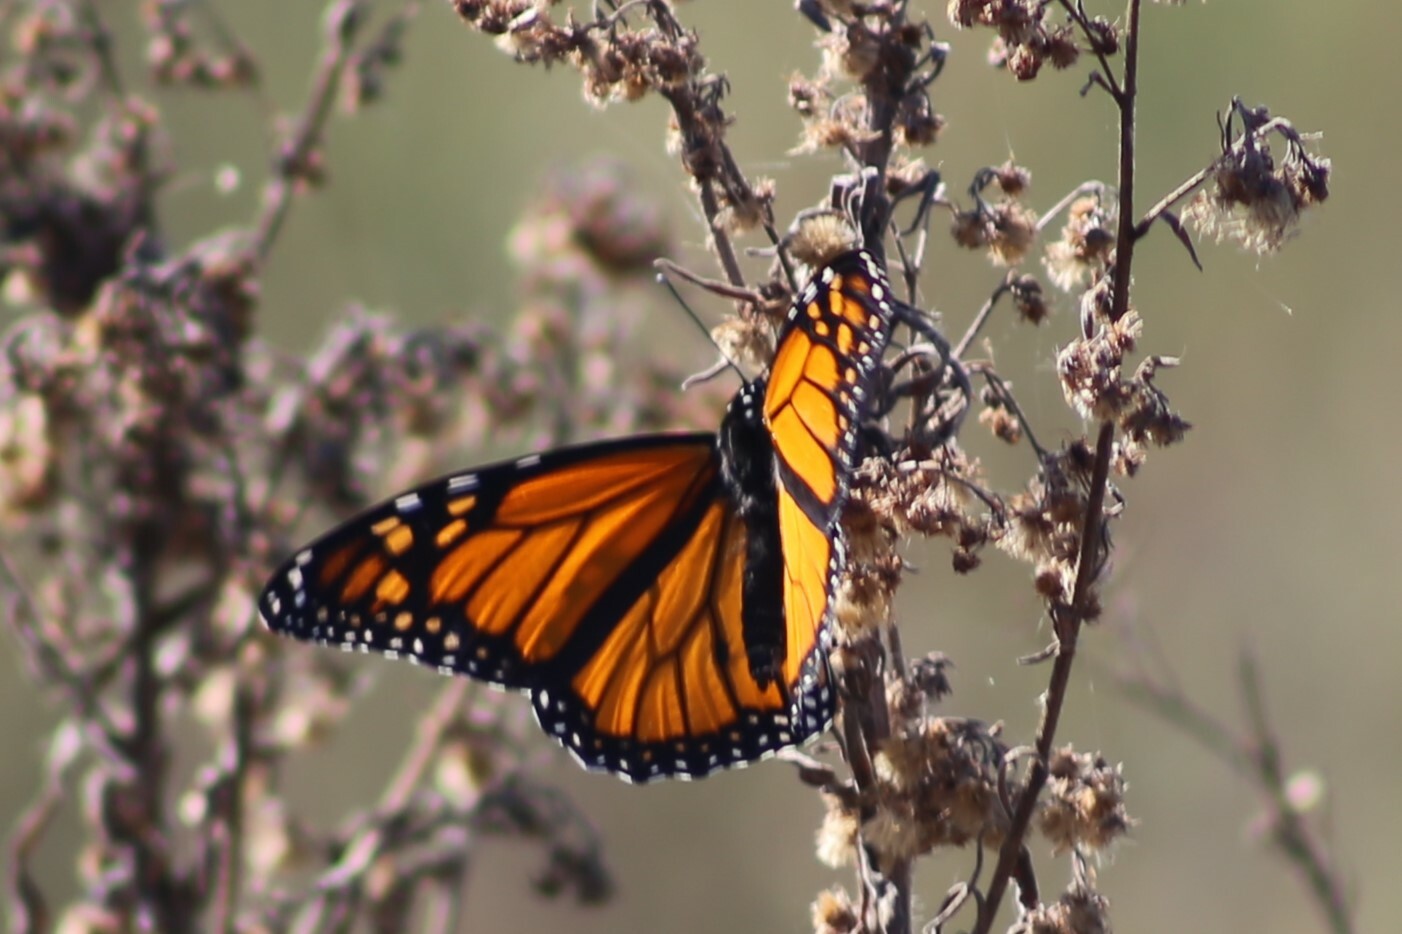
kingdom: Animalia
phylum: Arthropoda
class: Insecta
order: Lepidoptera
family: Nymphalidae
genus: Danaus
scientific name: Danaus plexippus
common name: Monarch
